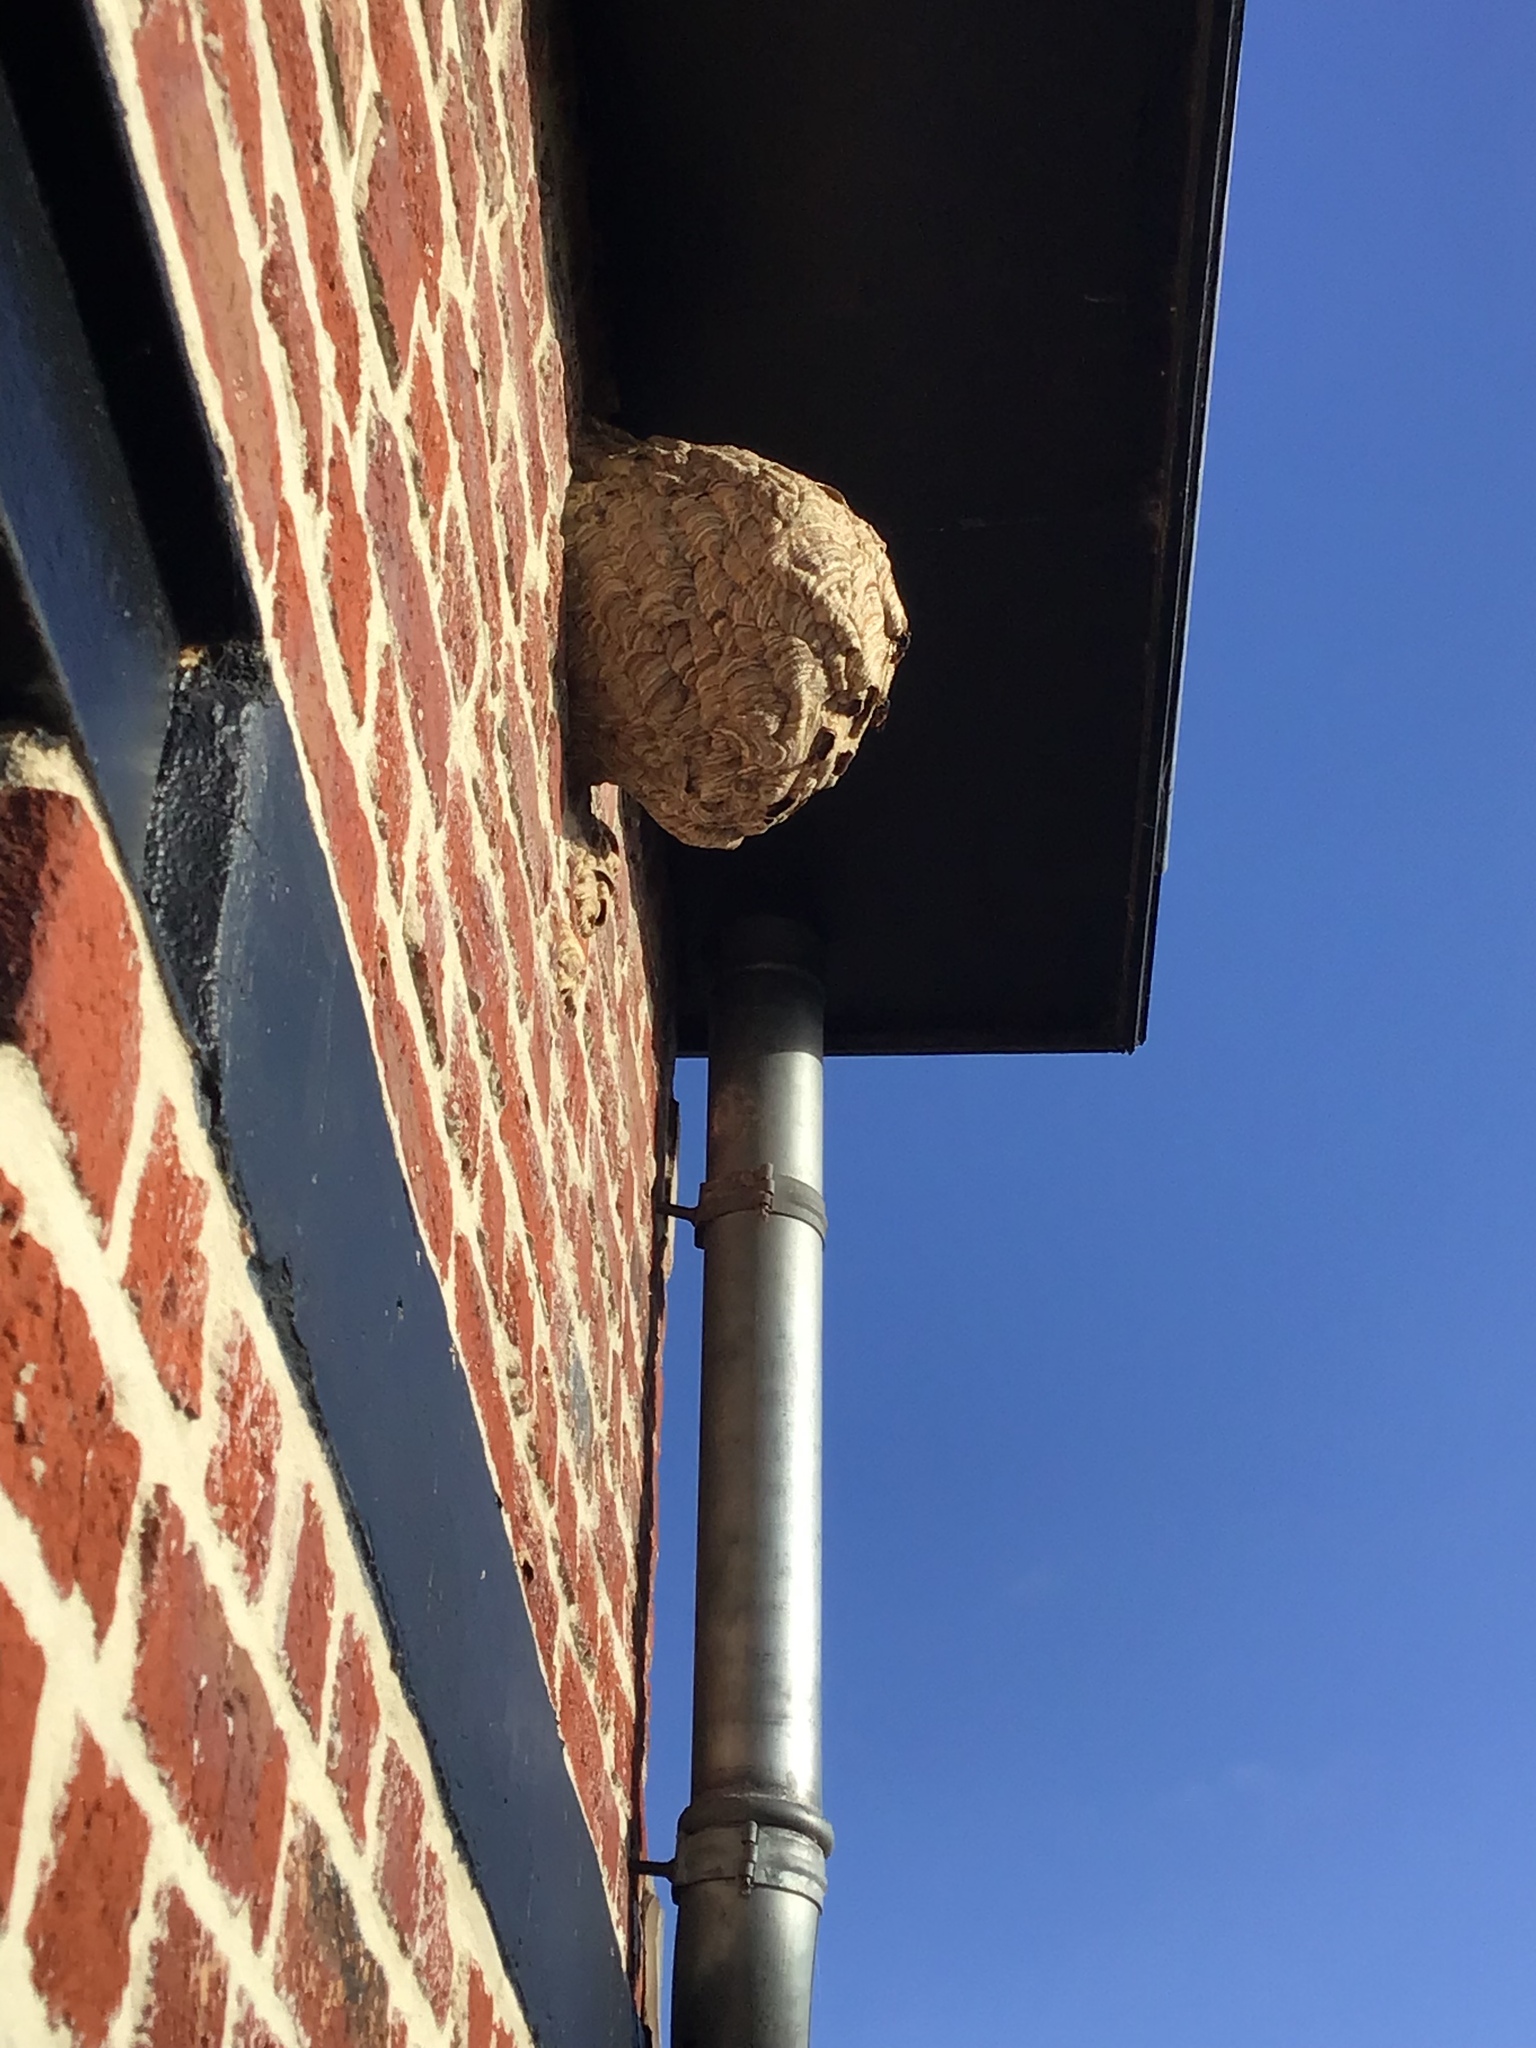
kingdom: Animalia
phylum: Arthropoda
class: Insecta
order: Hymenoptera
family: Vespidae
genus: Vespa
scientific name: Vespa velutina
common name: Asian hornet
